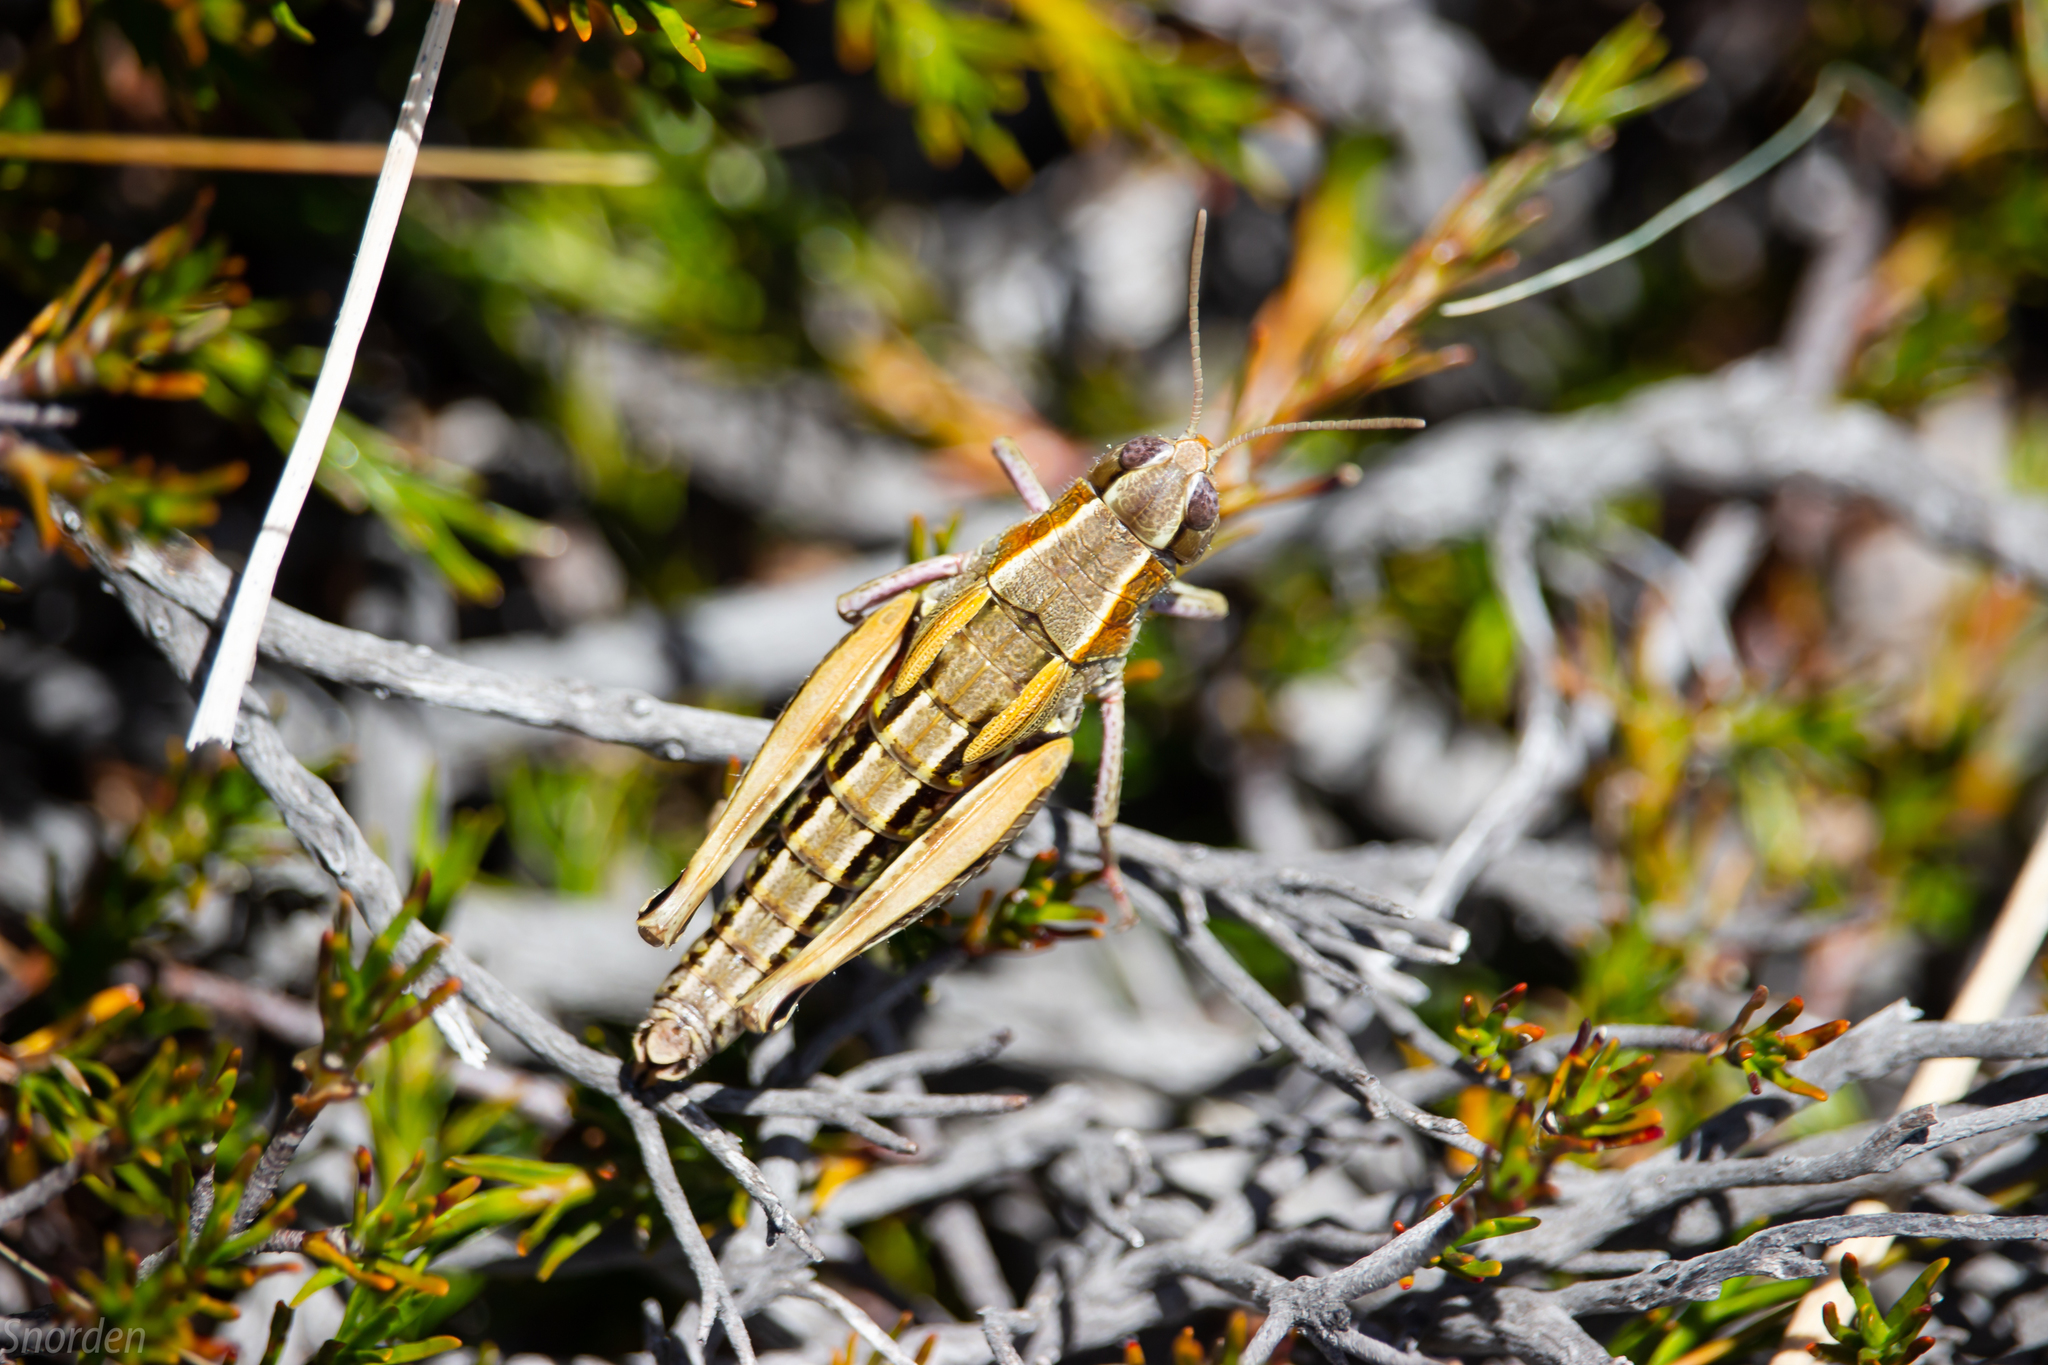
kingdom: Animalia
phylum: Arthropoda
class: Insecta
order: Orthoptera
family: Acrididae
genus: Sigaus
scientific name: Sigaus australis
